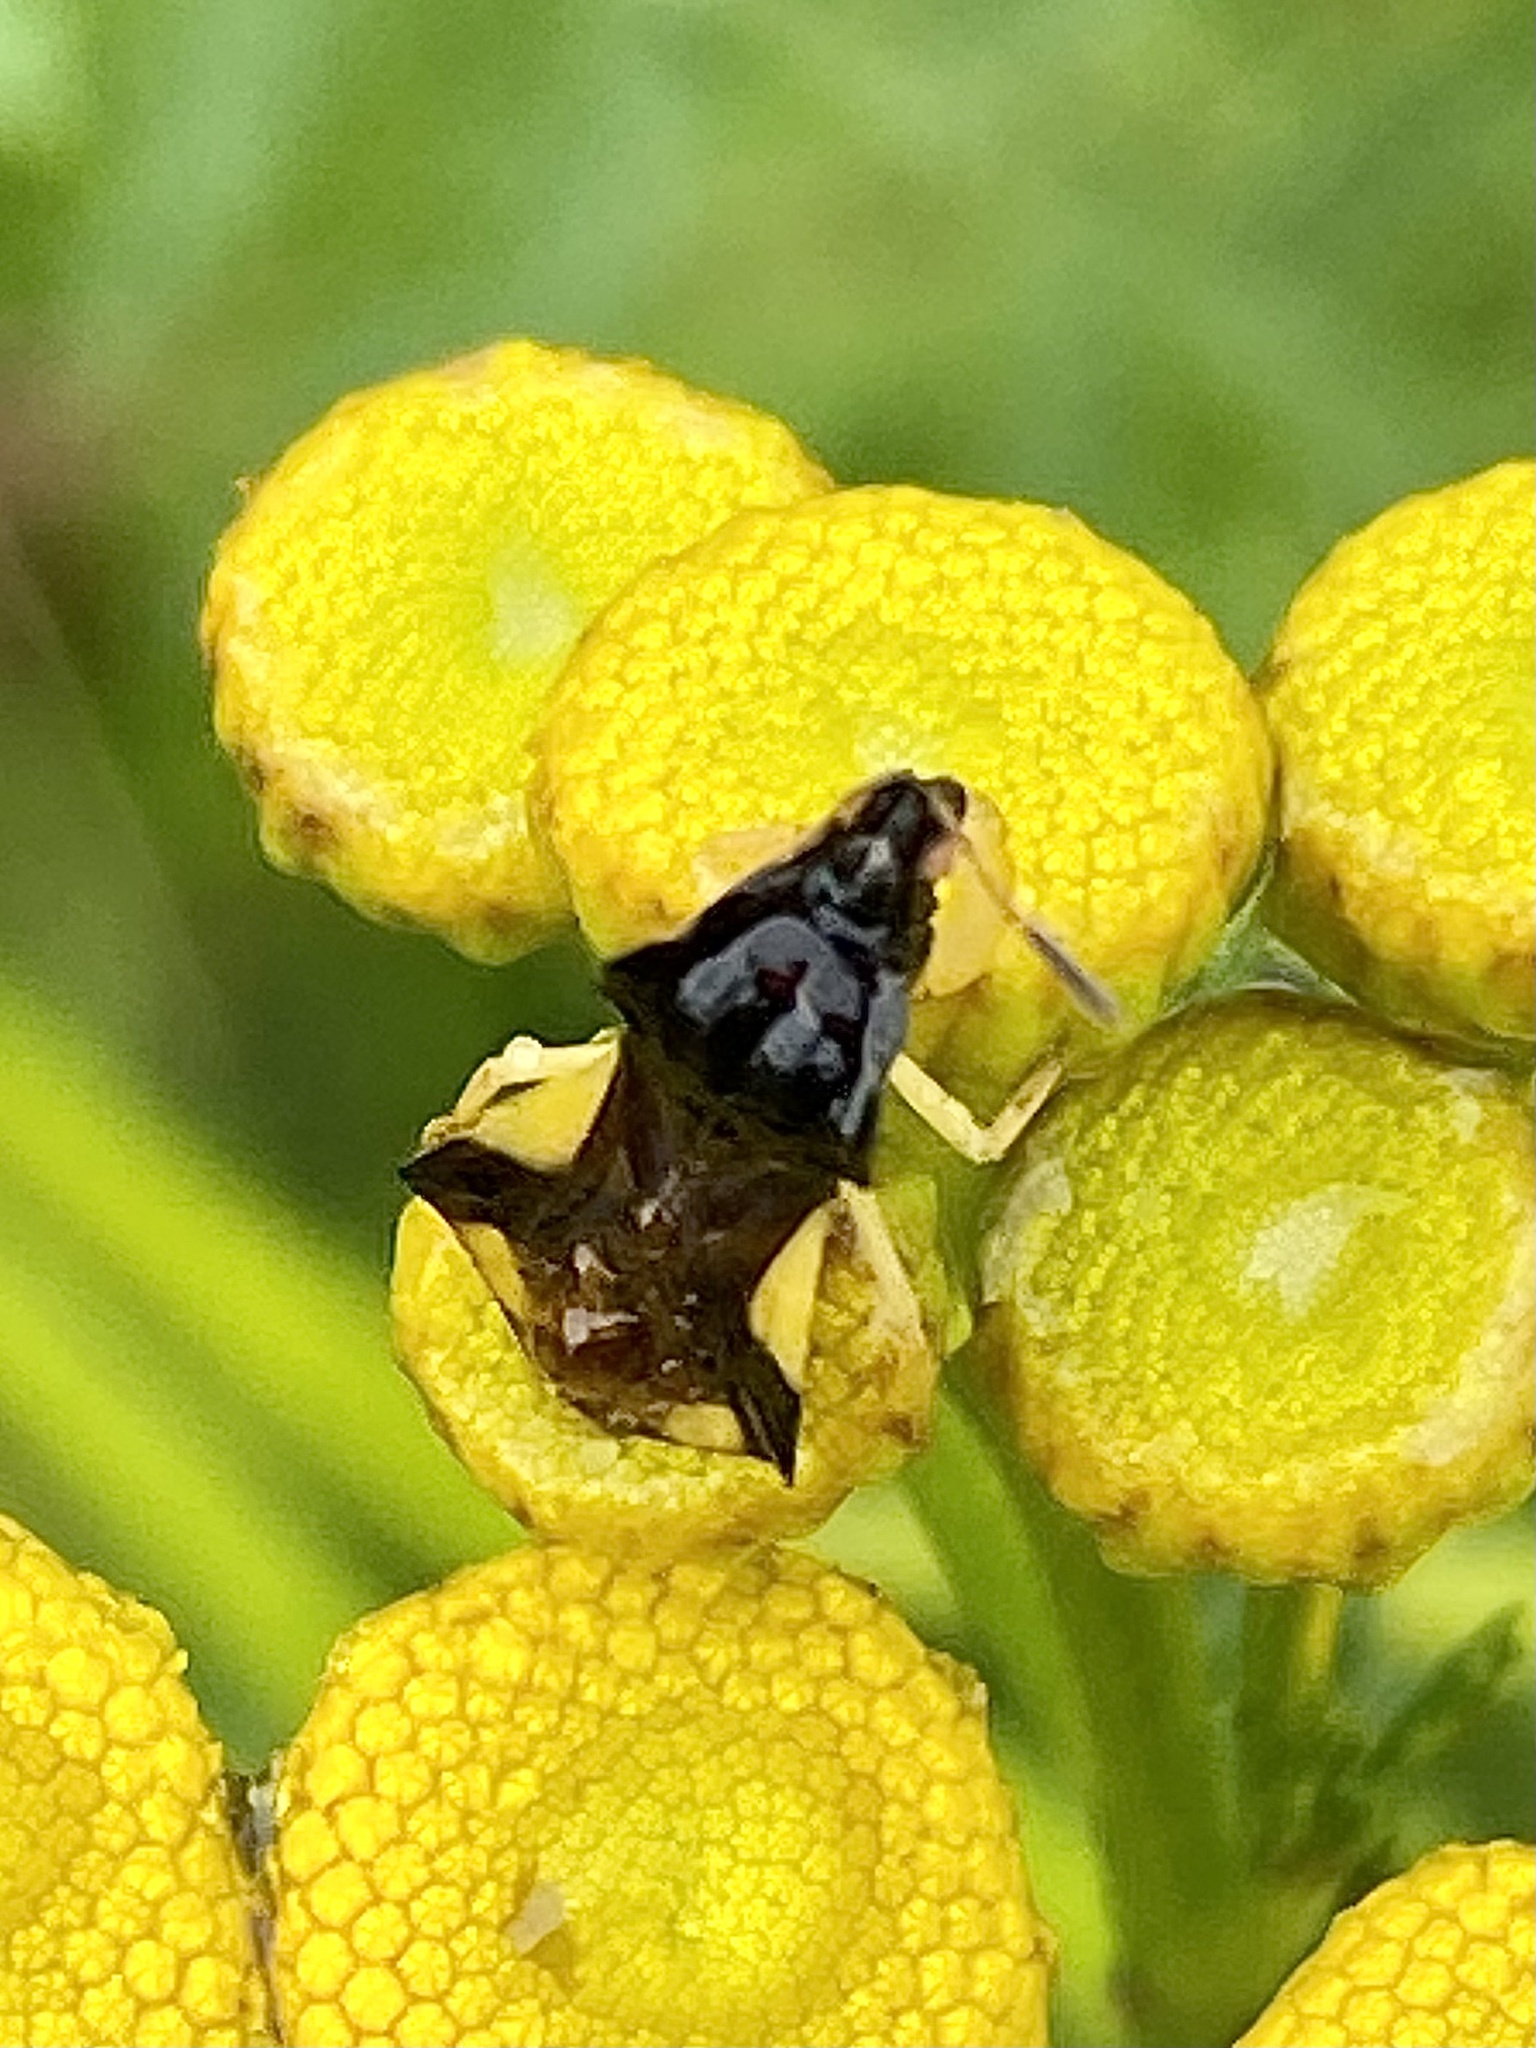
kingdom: Animalia
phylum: Arthropoda
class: Insecta
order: Hemiptera
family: Reduviidae
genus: Phymata
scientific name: Phymata pennsylvanica
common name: Pennsylvania ambush bug
